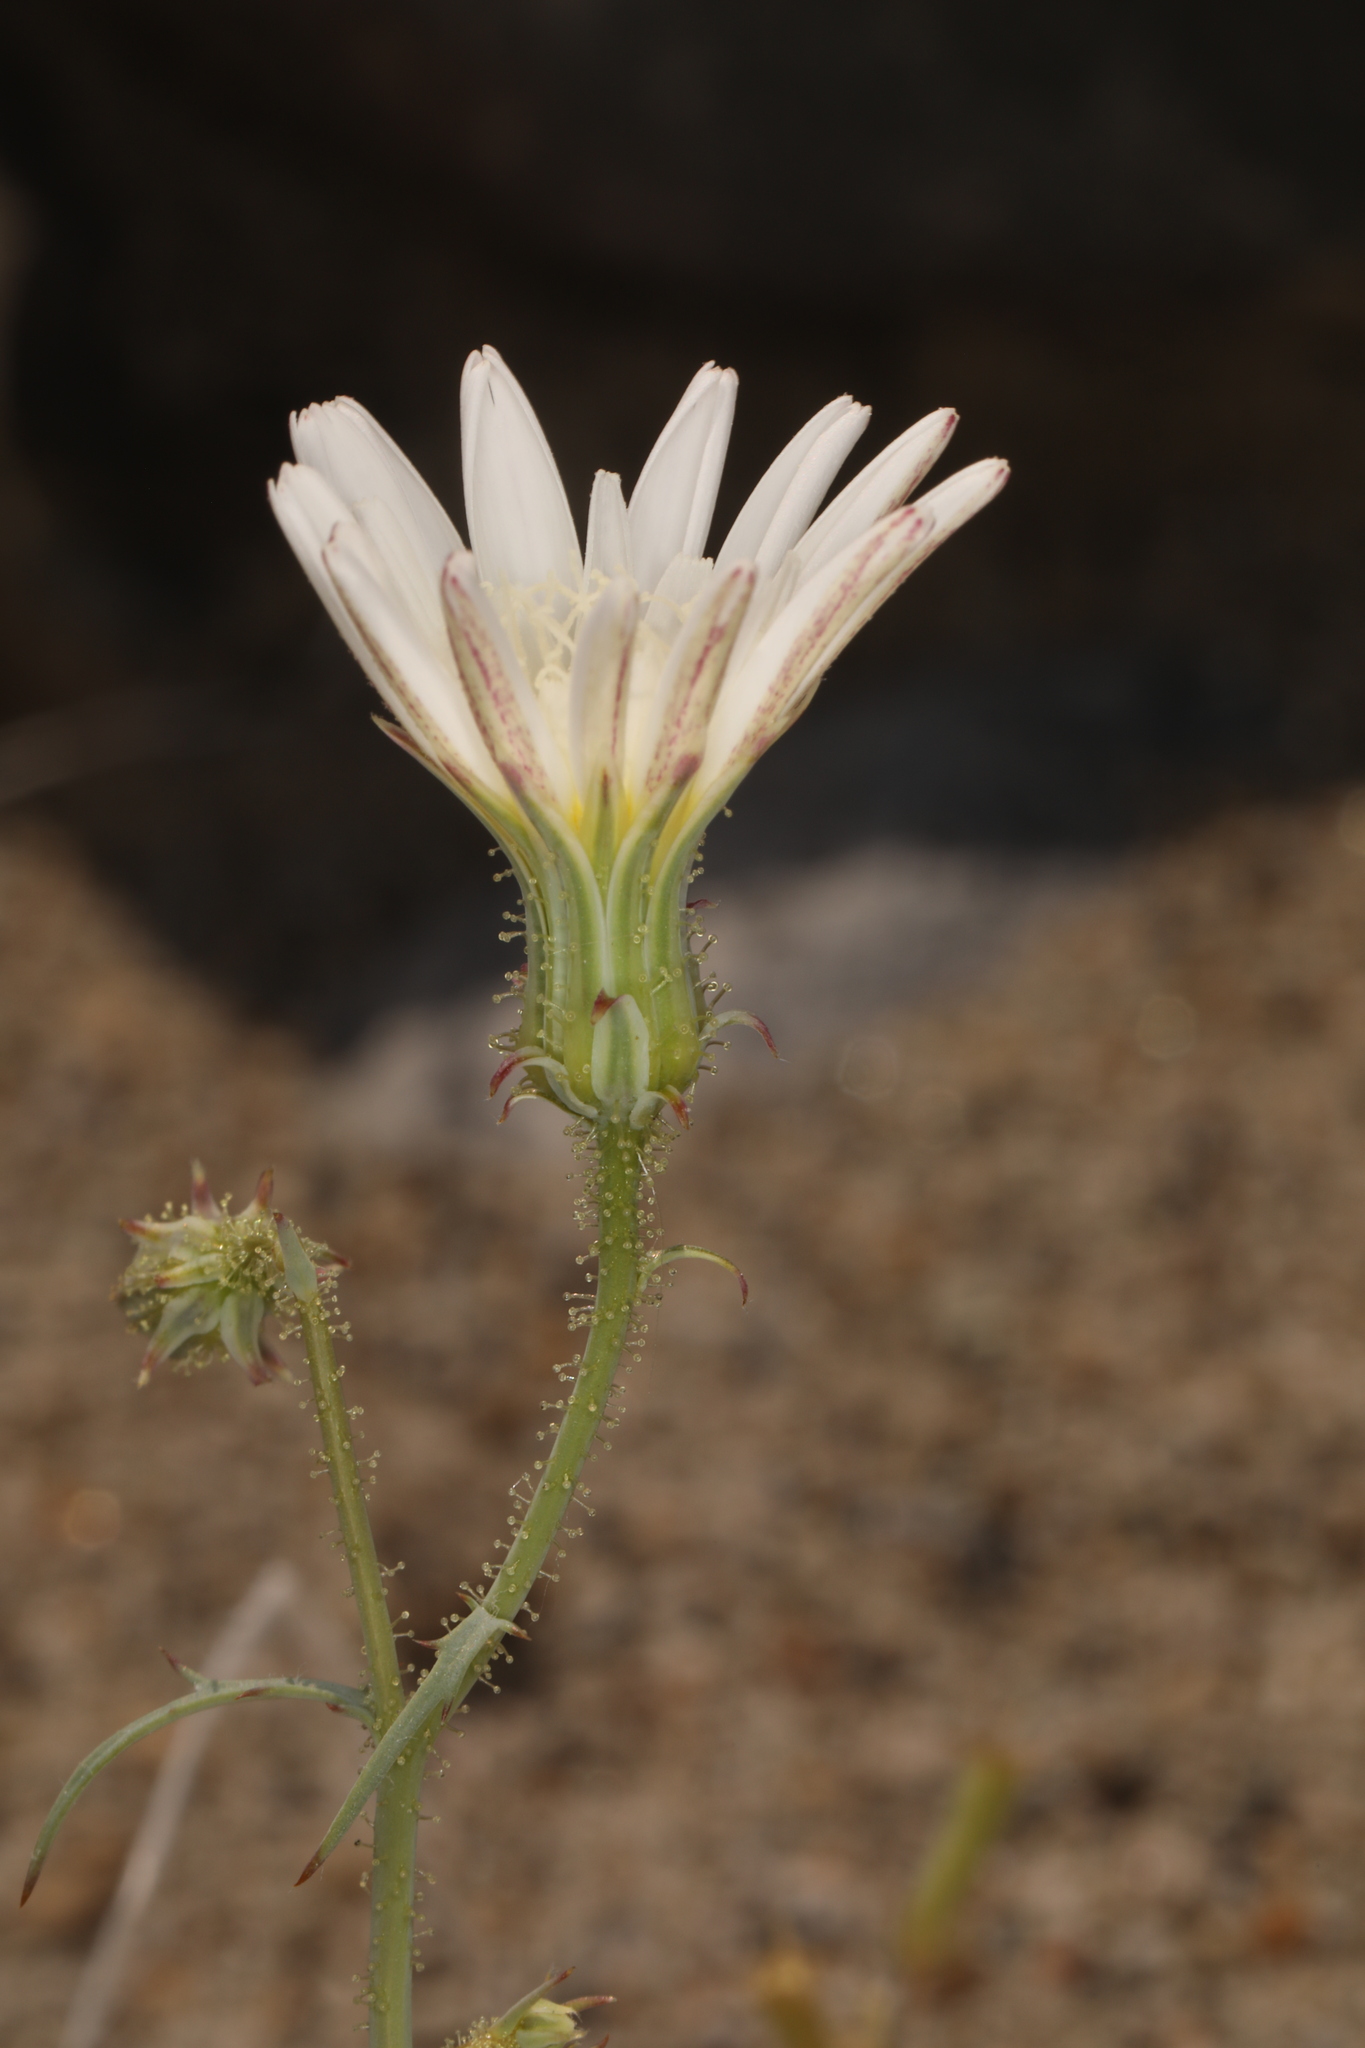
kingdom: Plantae
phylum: Tracheophyta
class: Magnoliopsida
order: Asterales
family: Asteraceae
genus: Calycoseris
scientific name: Calycoseris wrightii
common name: White tackstem
